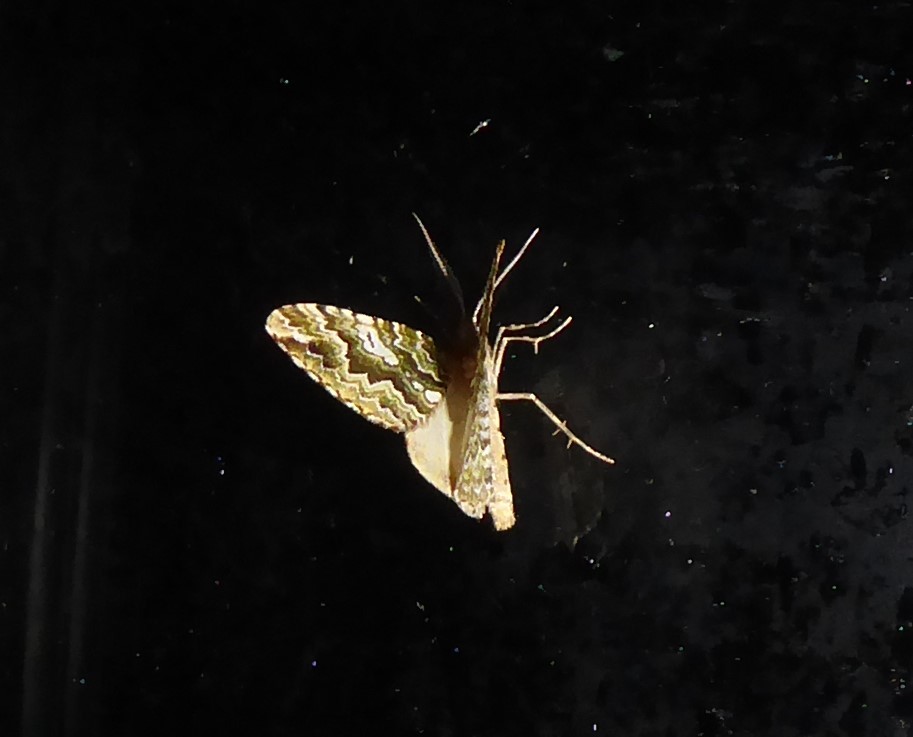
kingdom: Animalia
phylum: Arthropoda
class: Insecta
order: Lepidoptera
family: Geometridae
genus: Asaphodes
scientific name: Asaphodes beata
